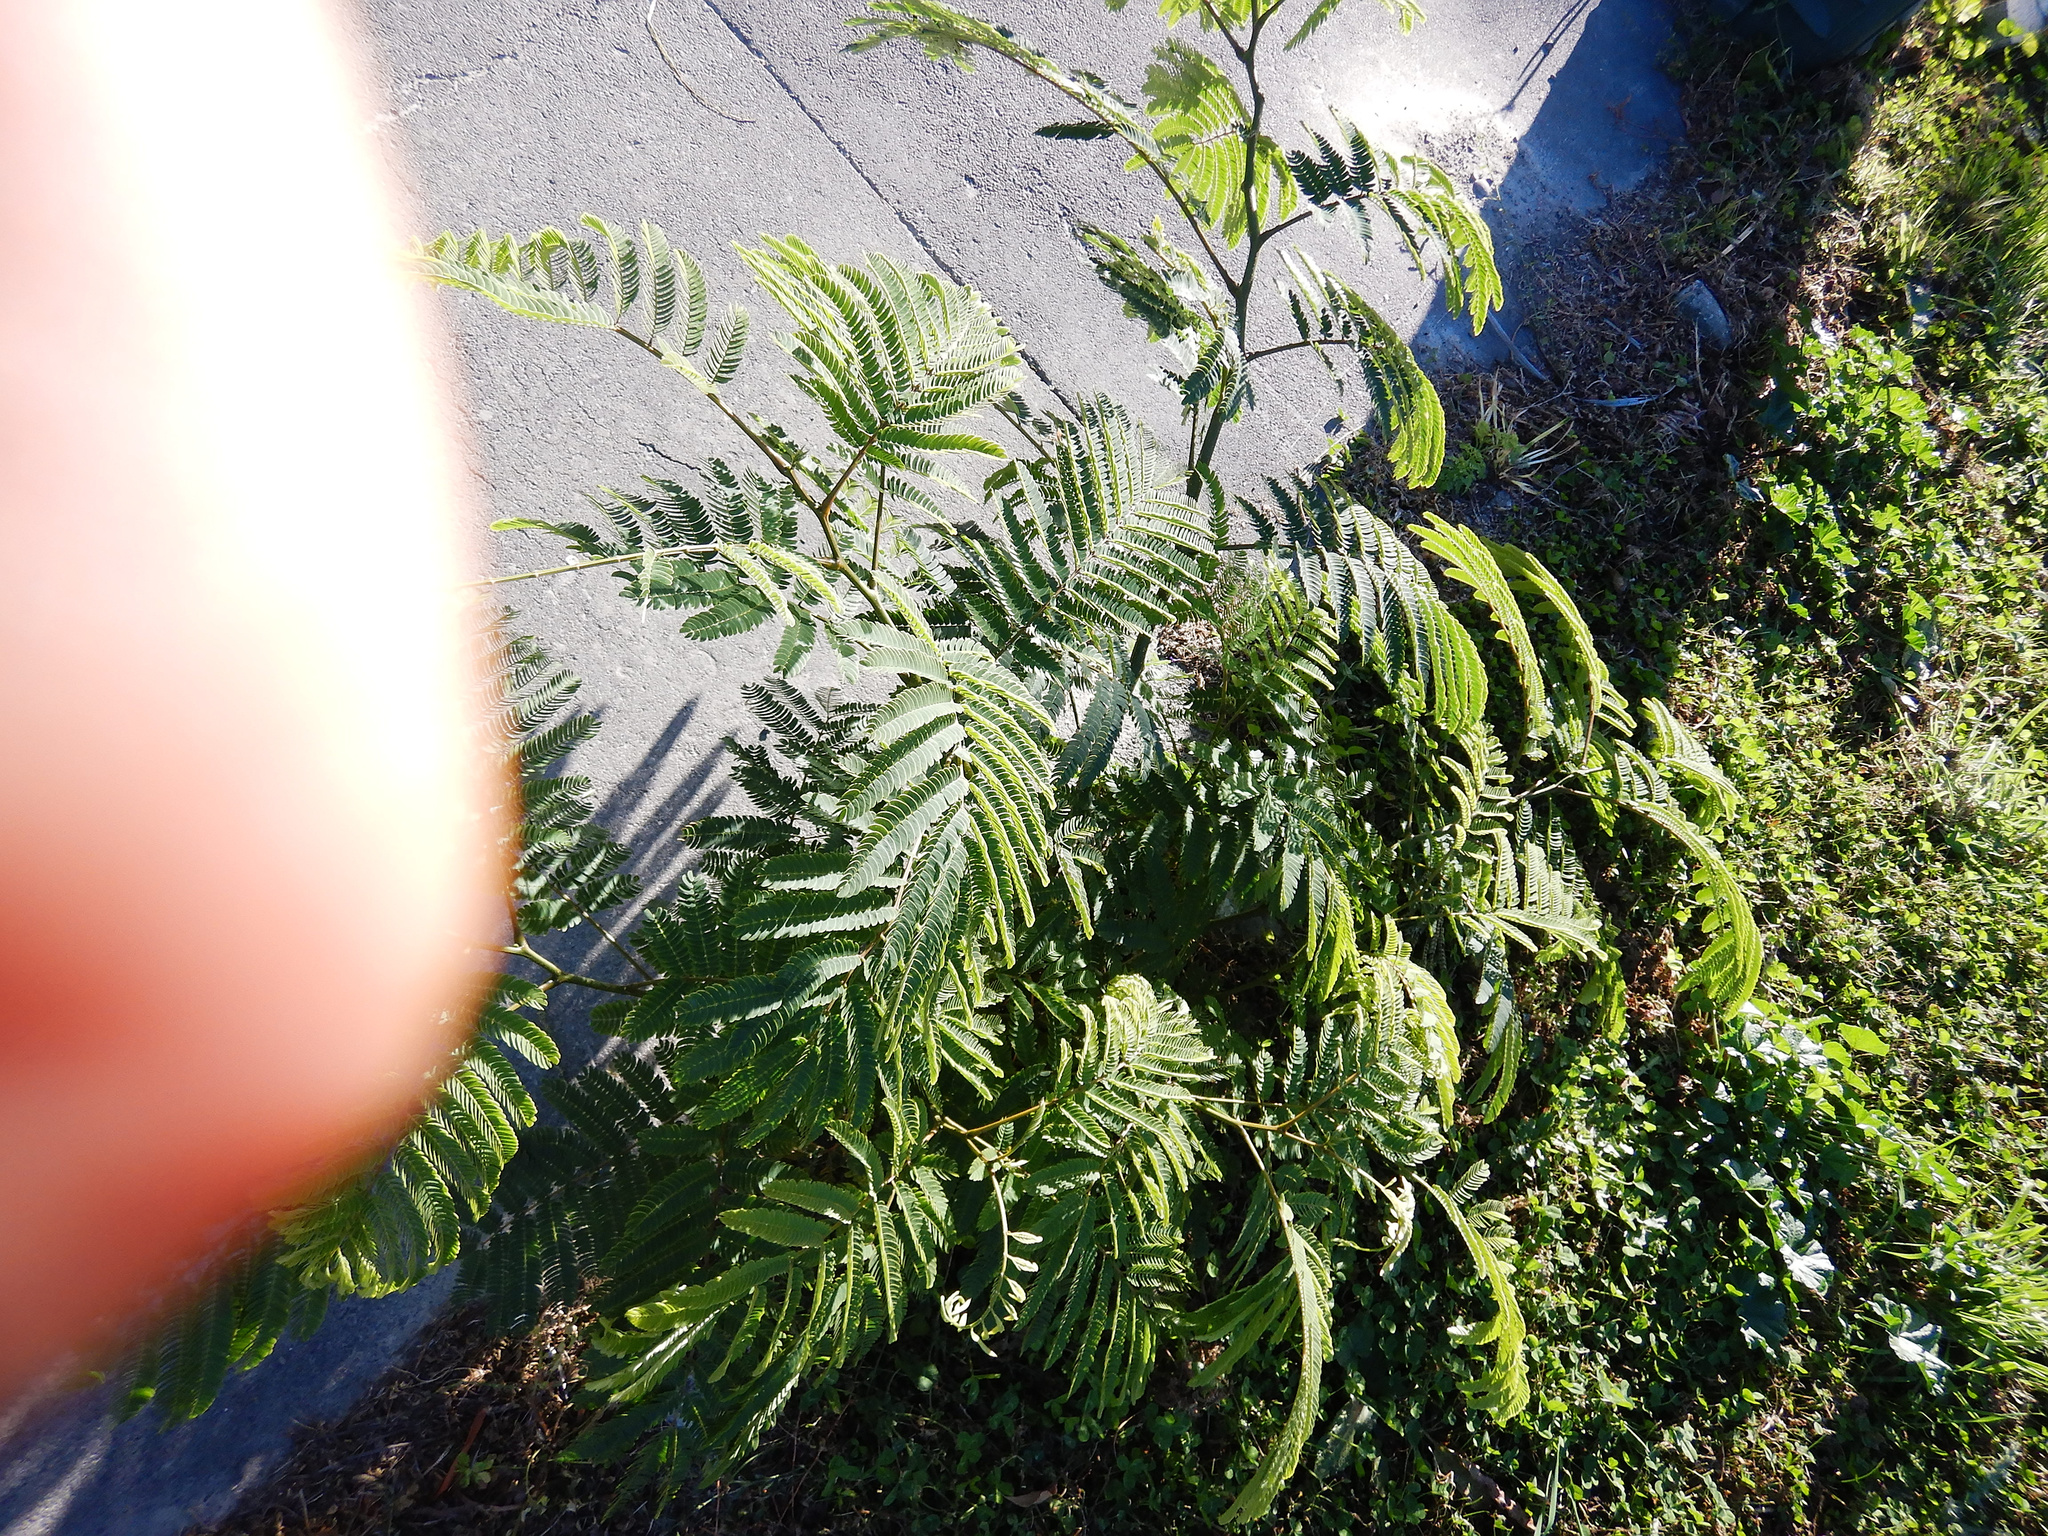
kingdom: Plantae
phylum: Tracheophyta
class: Magnoliopsida
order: Fabales
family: Fabaceae
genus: Paraserianthes
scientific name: Paraserianthes lophantha
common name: Plume albizia
